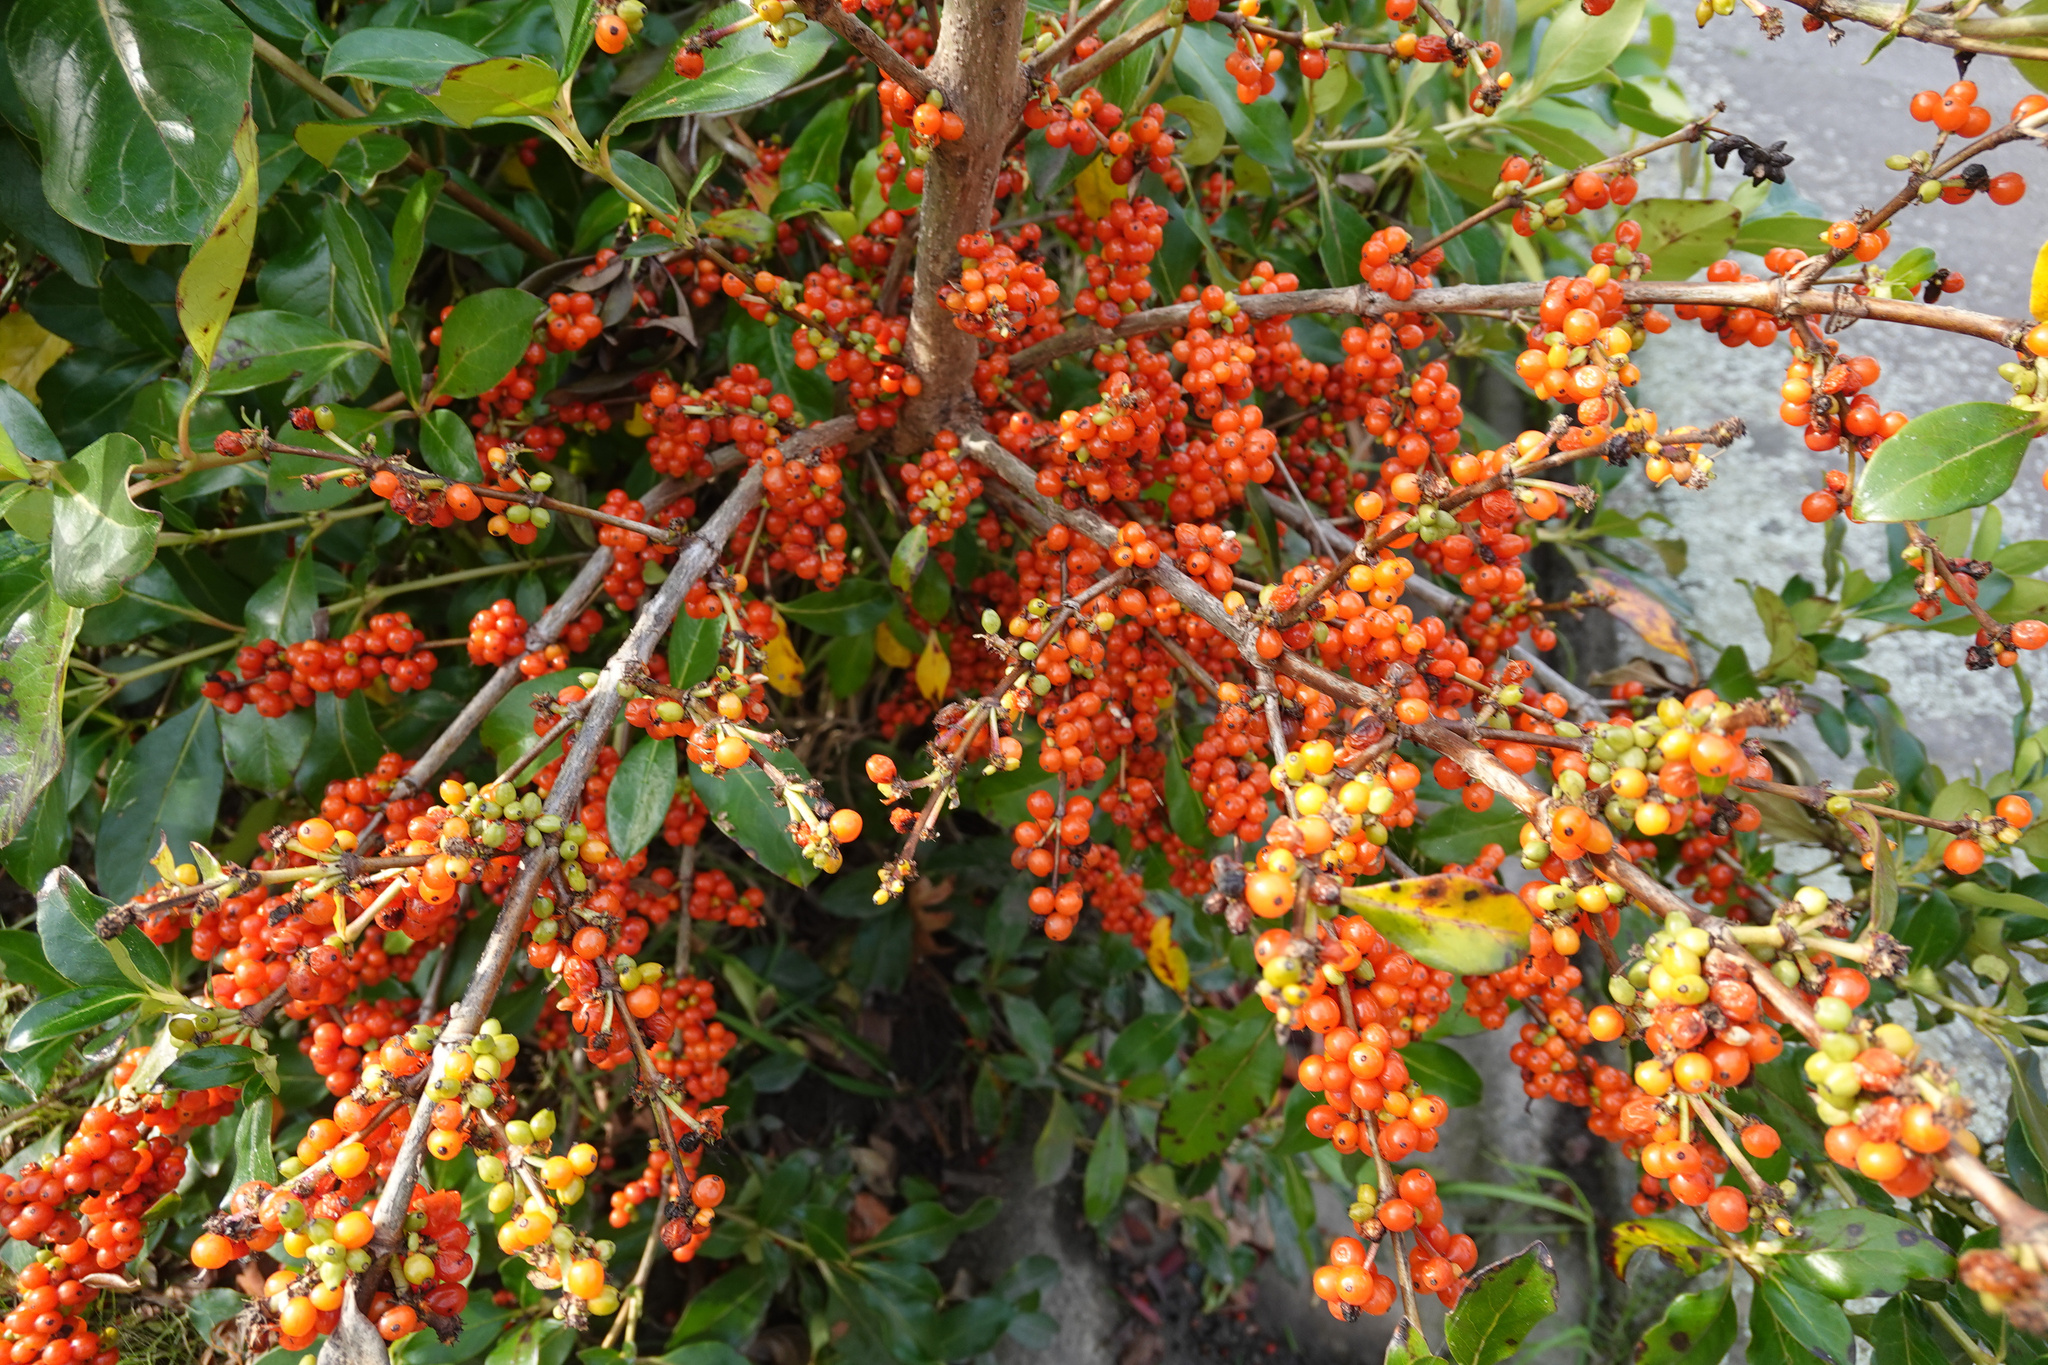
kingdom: Plantae
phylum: Tracheophyta
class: Magnoliopsida
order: Gentianales
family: Rubiaceae
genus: Coprosma
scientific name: Coprosma robusta
